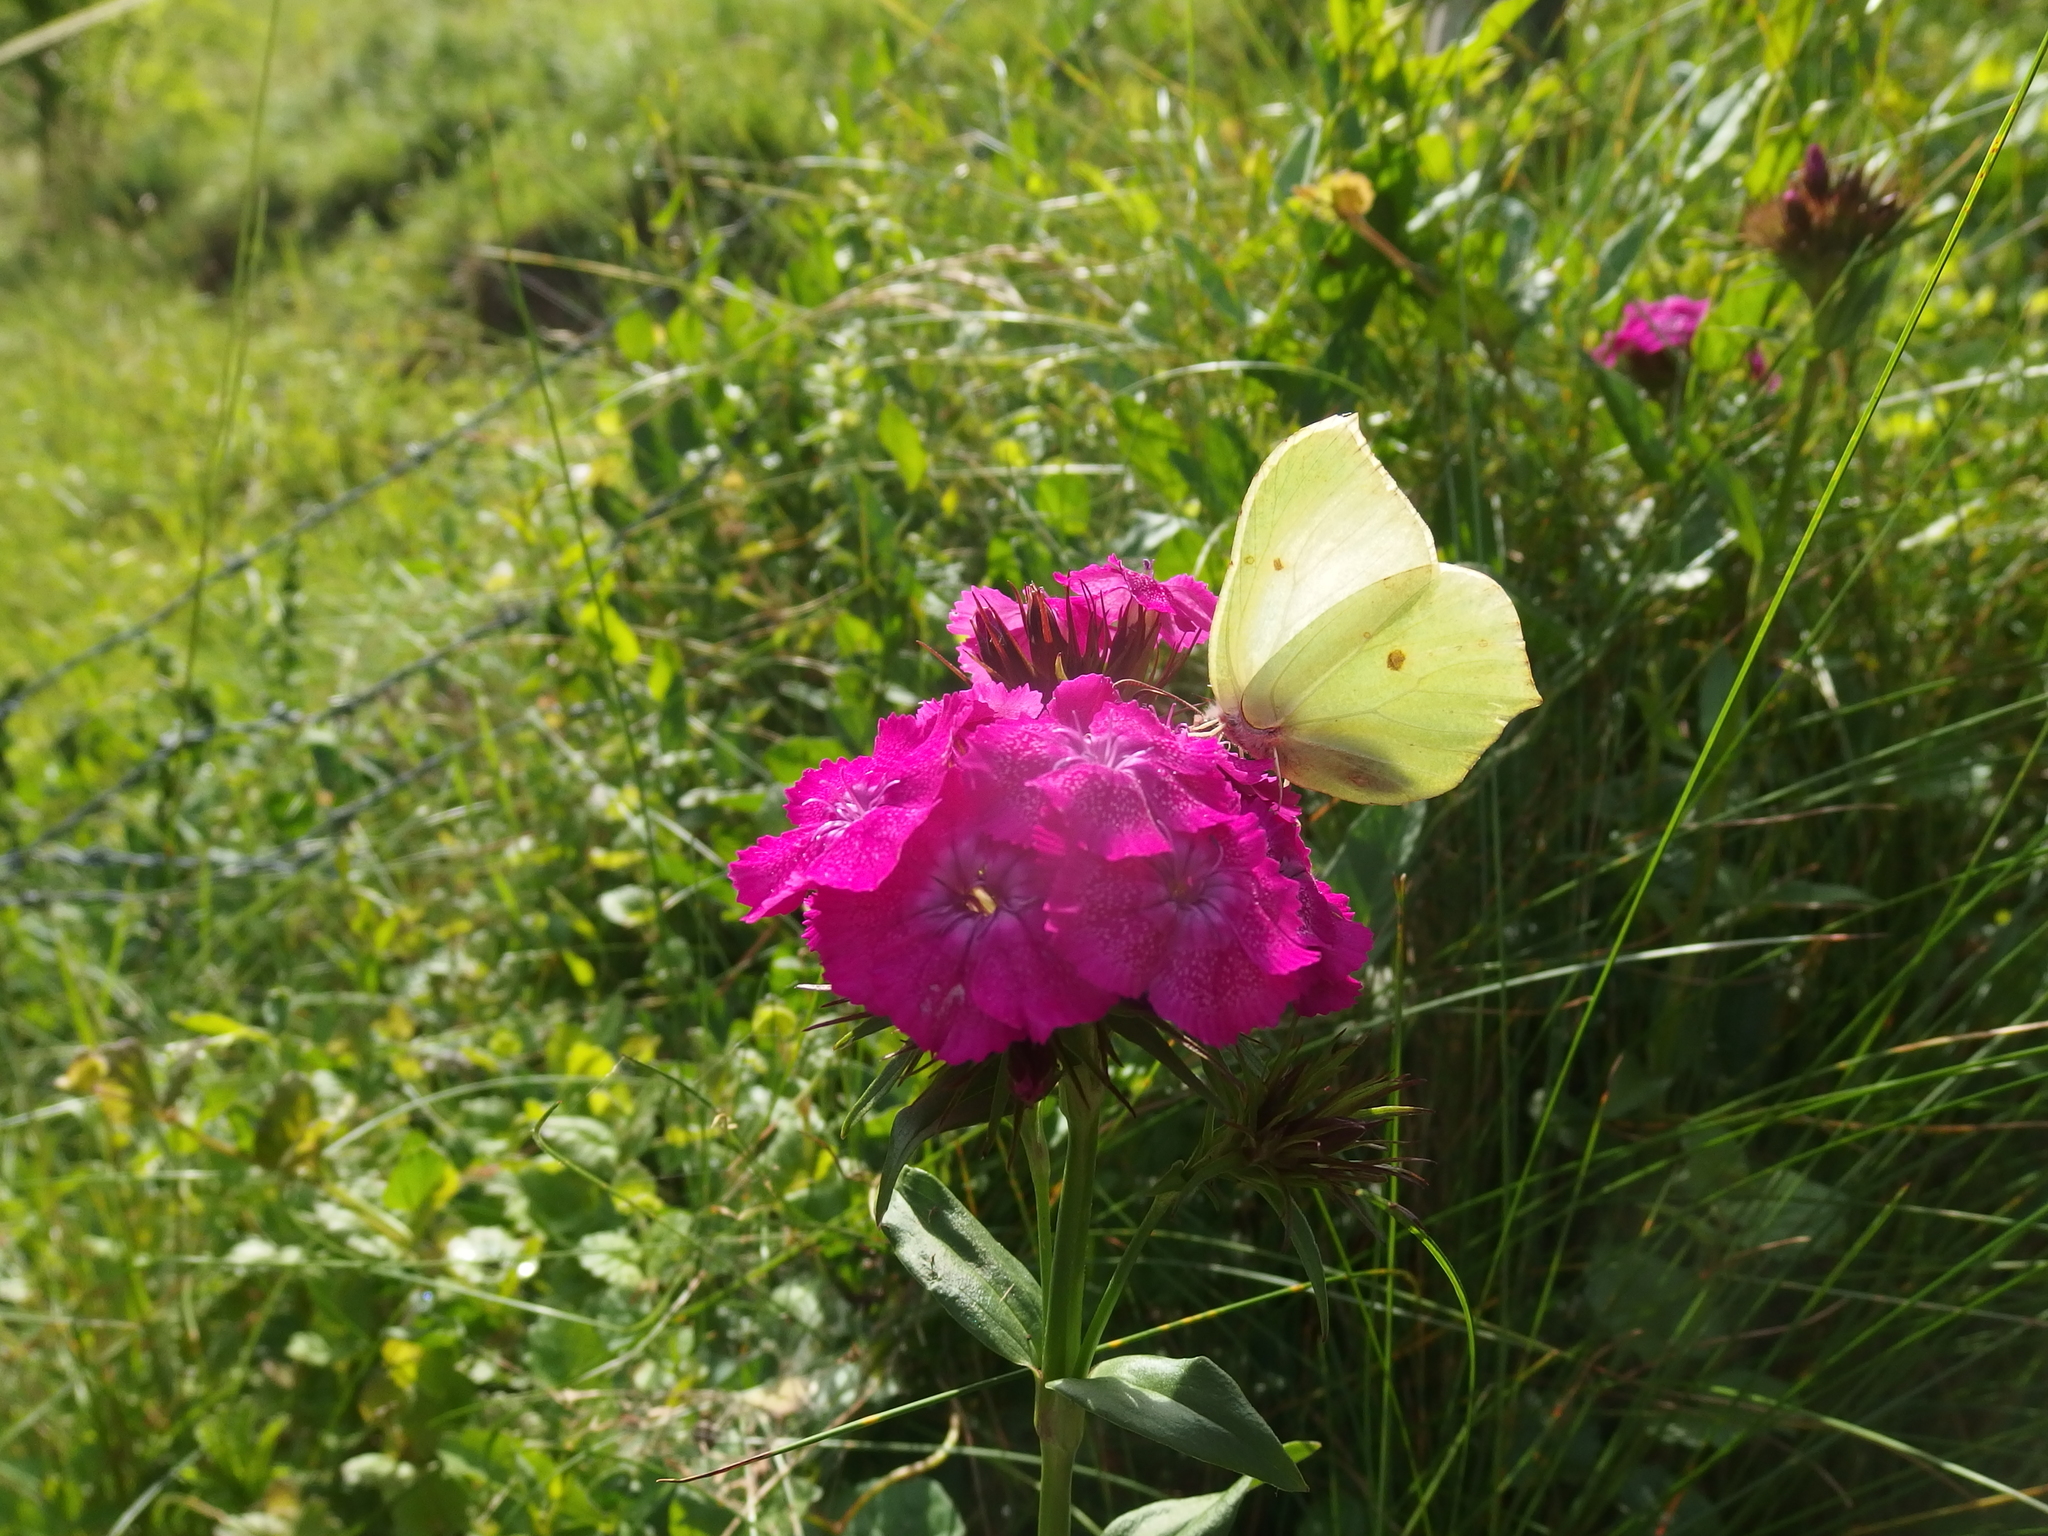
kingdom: Plantae
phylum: Tracheophyta
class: Magnoliopsida
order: Caryophyllales
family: Caryophyllaceae
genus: Dianthus
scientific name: Dianthus barbatus
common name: Sweet-william
